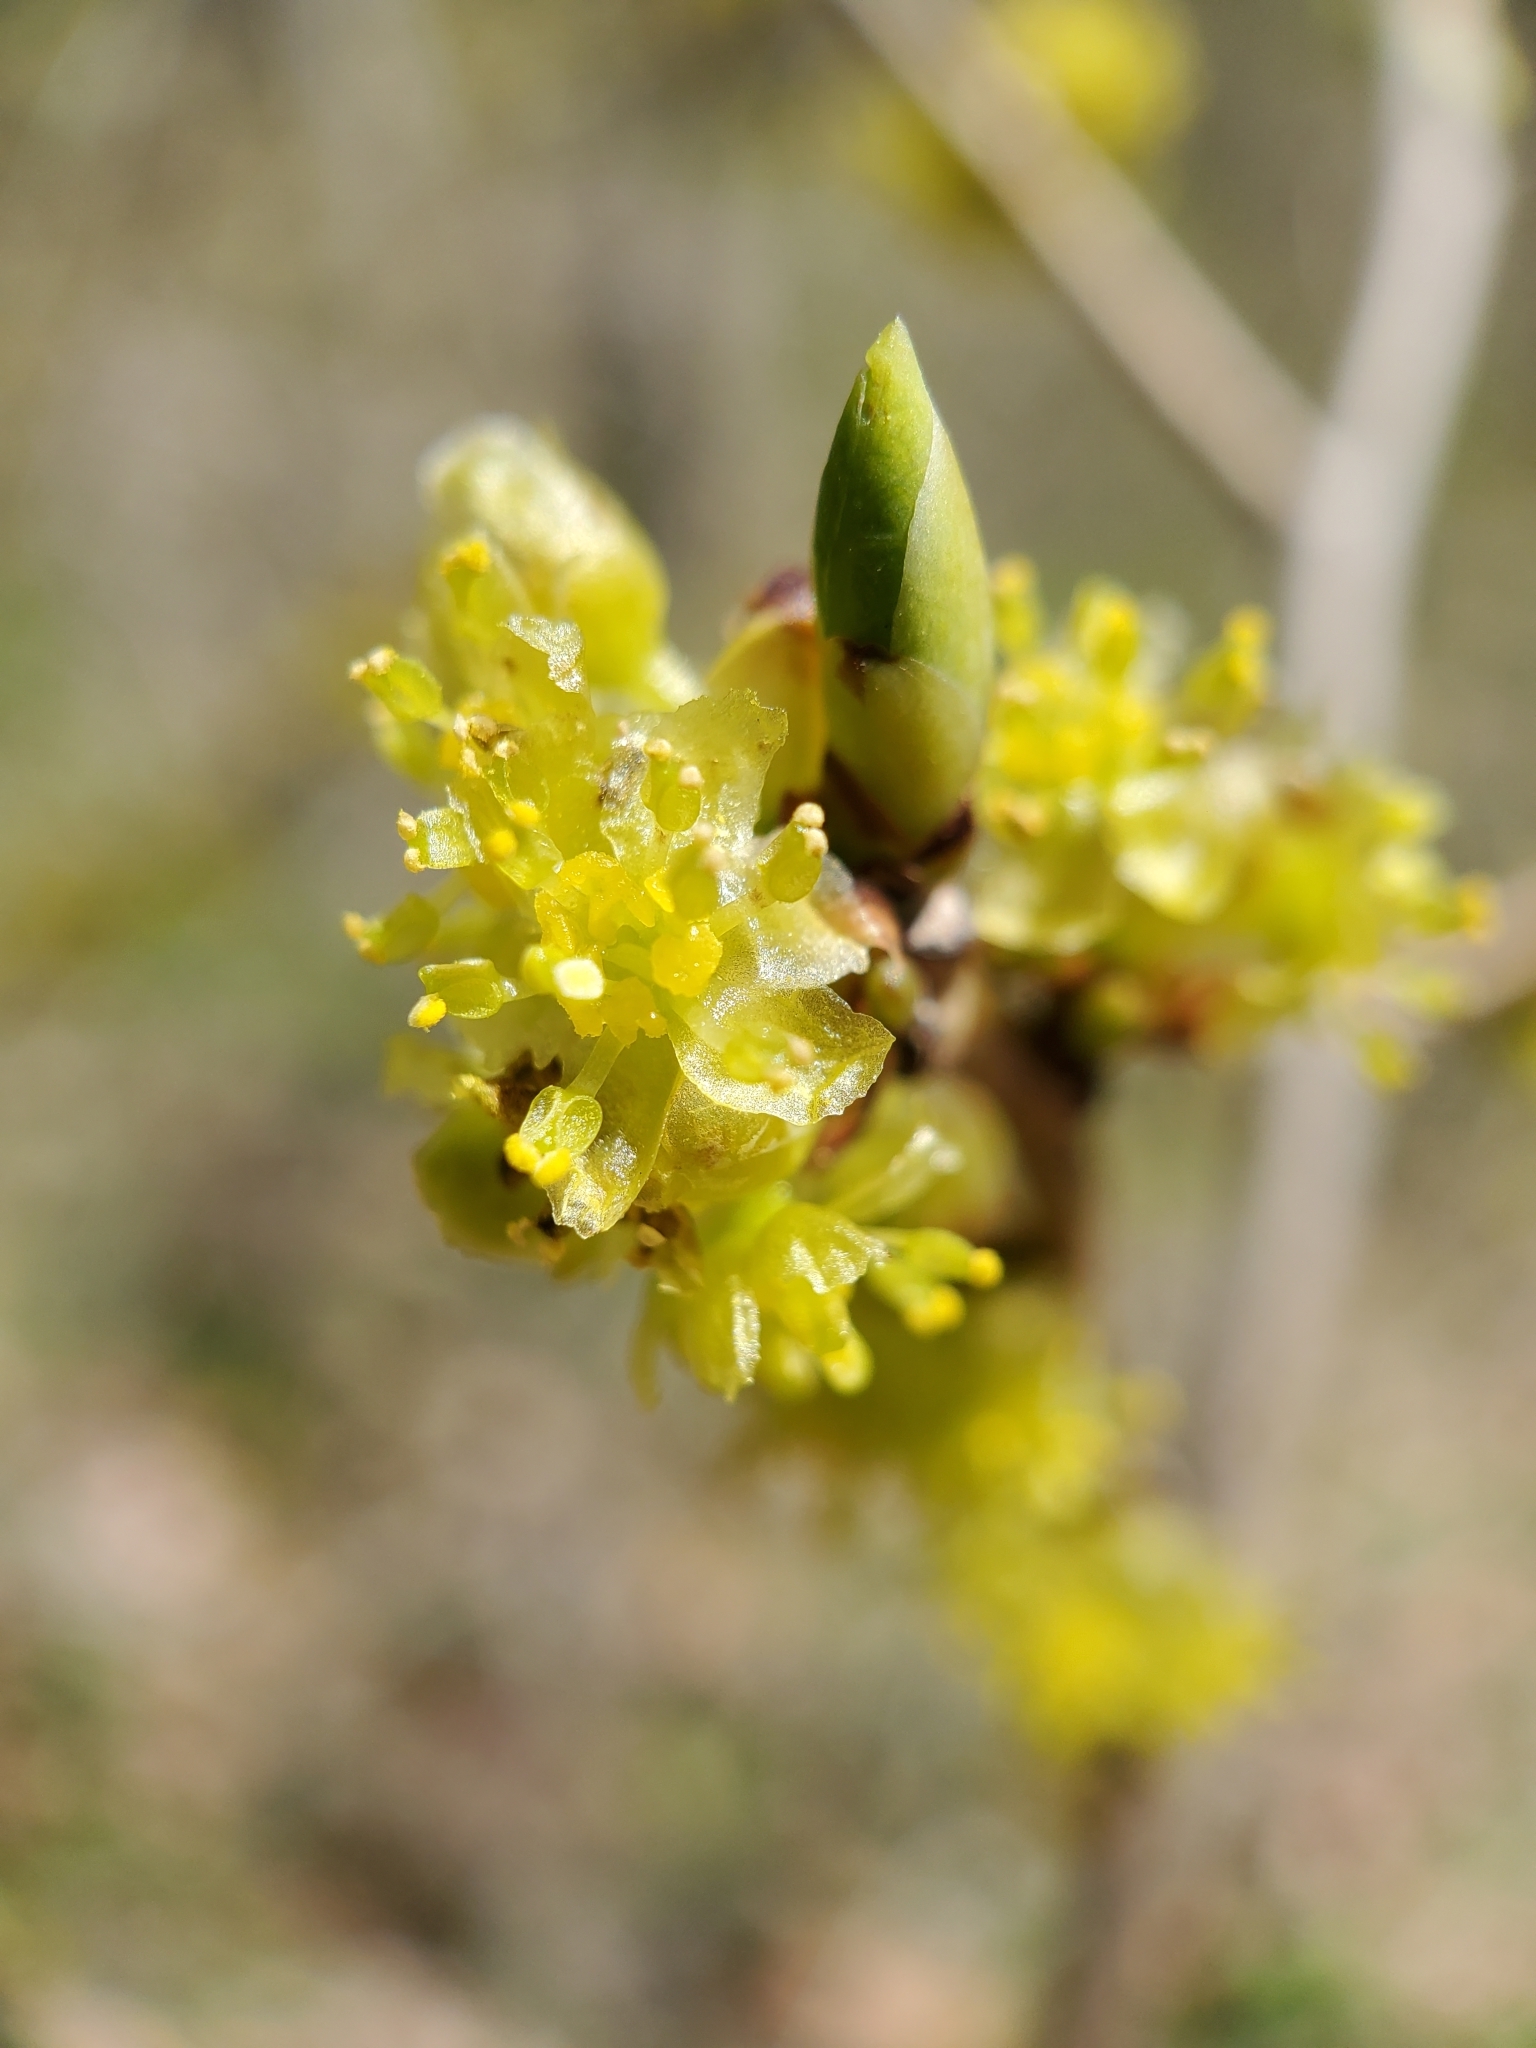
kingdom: Plantae
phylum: Tracheophyta
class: Magnoliopsida
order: Laurales
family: Lauraceae
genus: Lindera
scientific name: Lindera benzoin
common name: Spicebush
